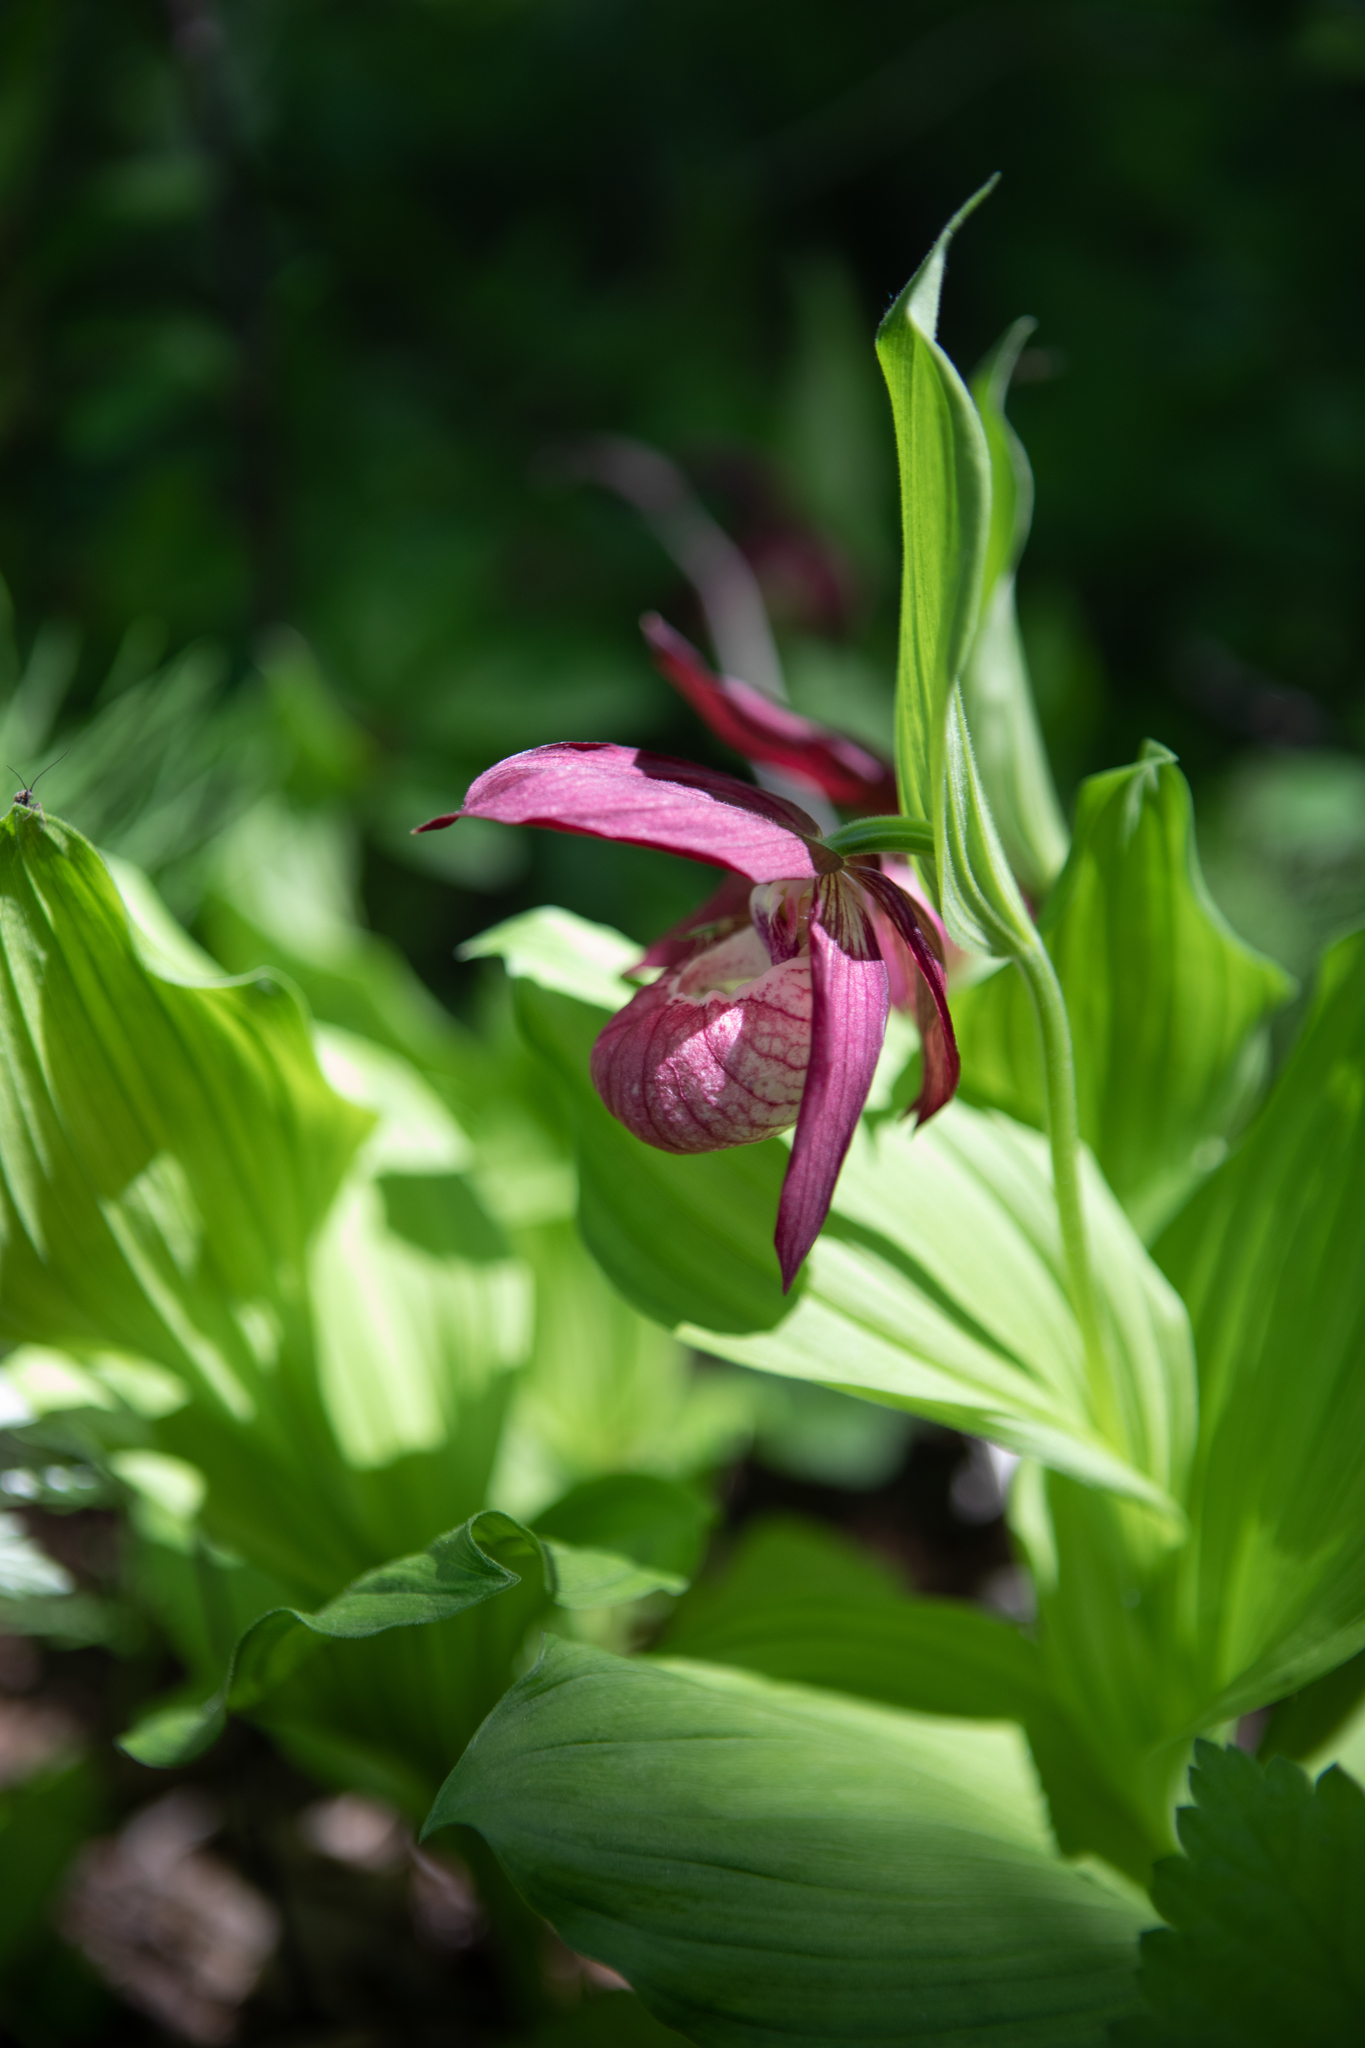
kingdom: Plantae
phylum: Tracheophyta
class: Liliopsida
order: Asparagales
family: Orchidaceae
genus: Cypripedium
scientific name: Cypripedium ventricosum
